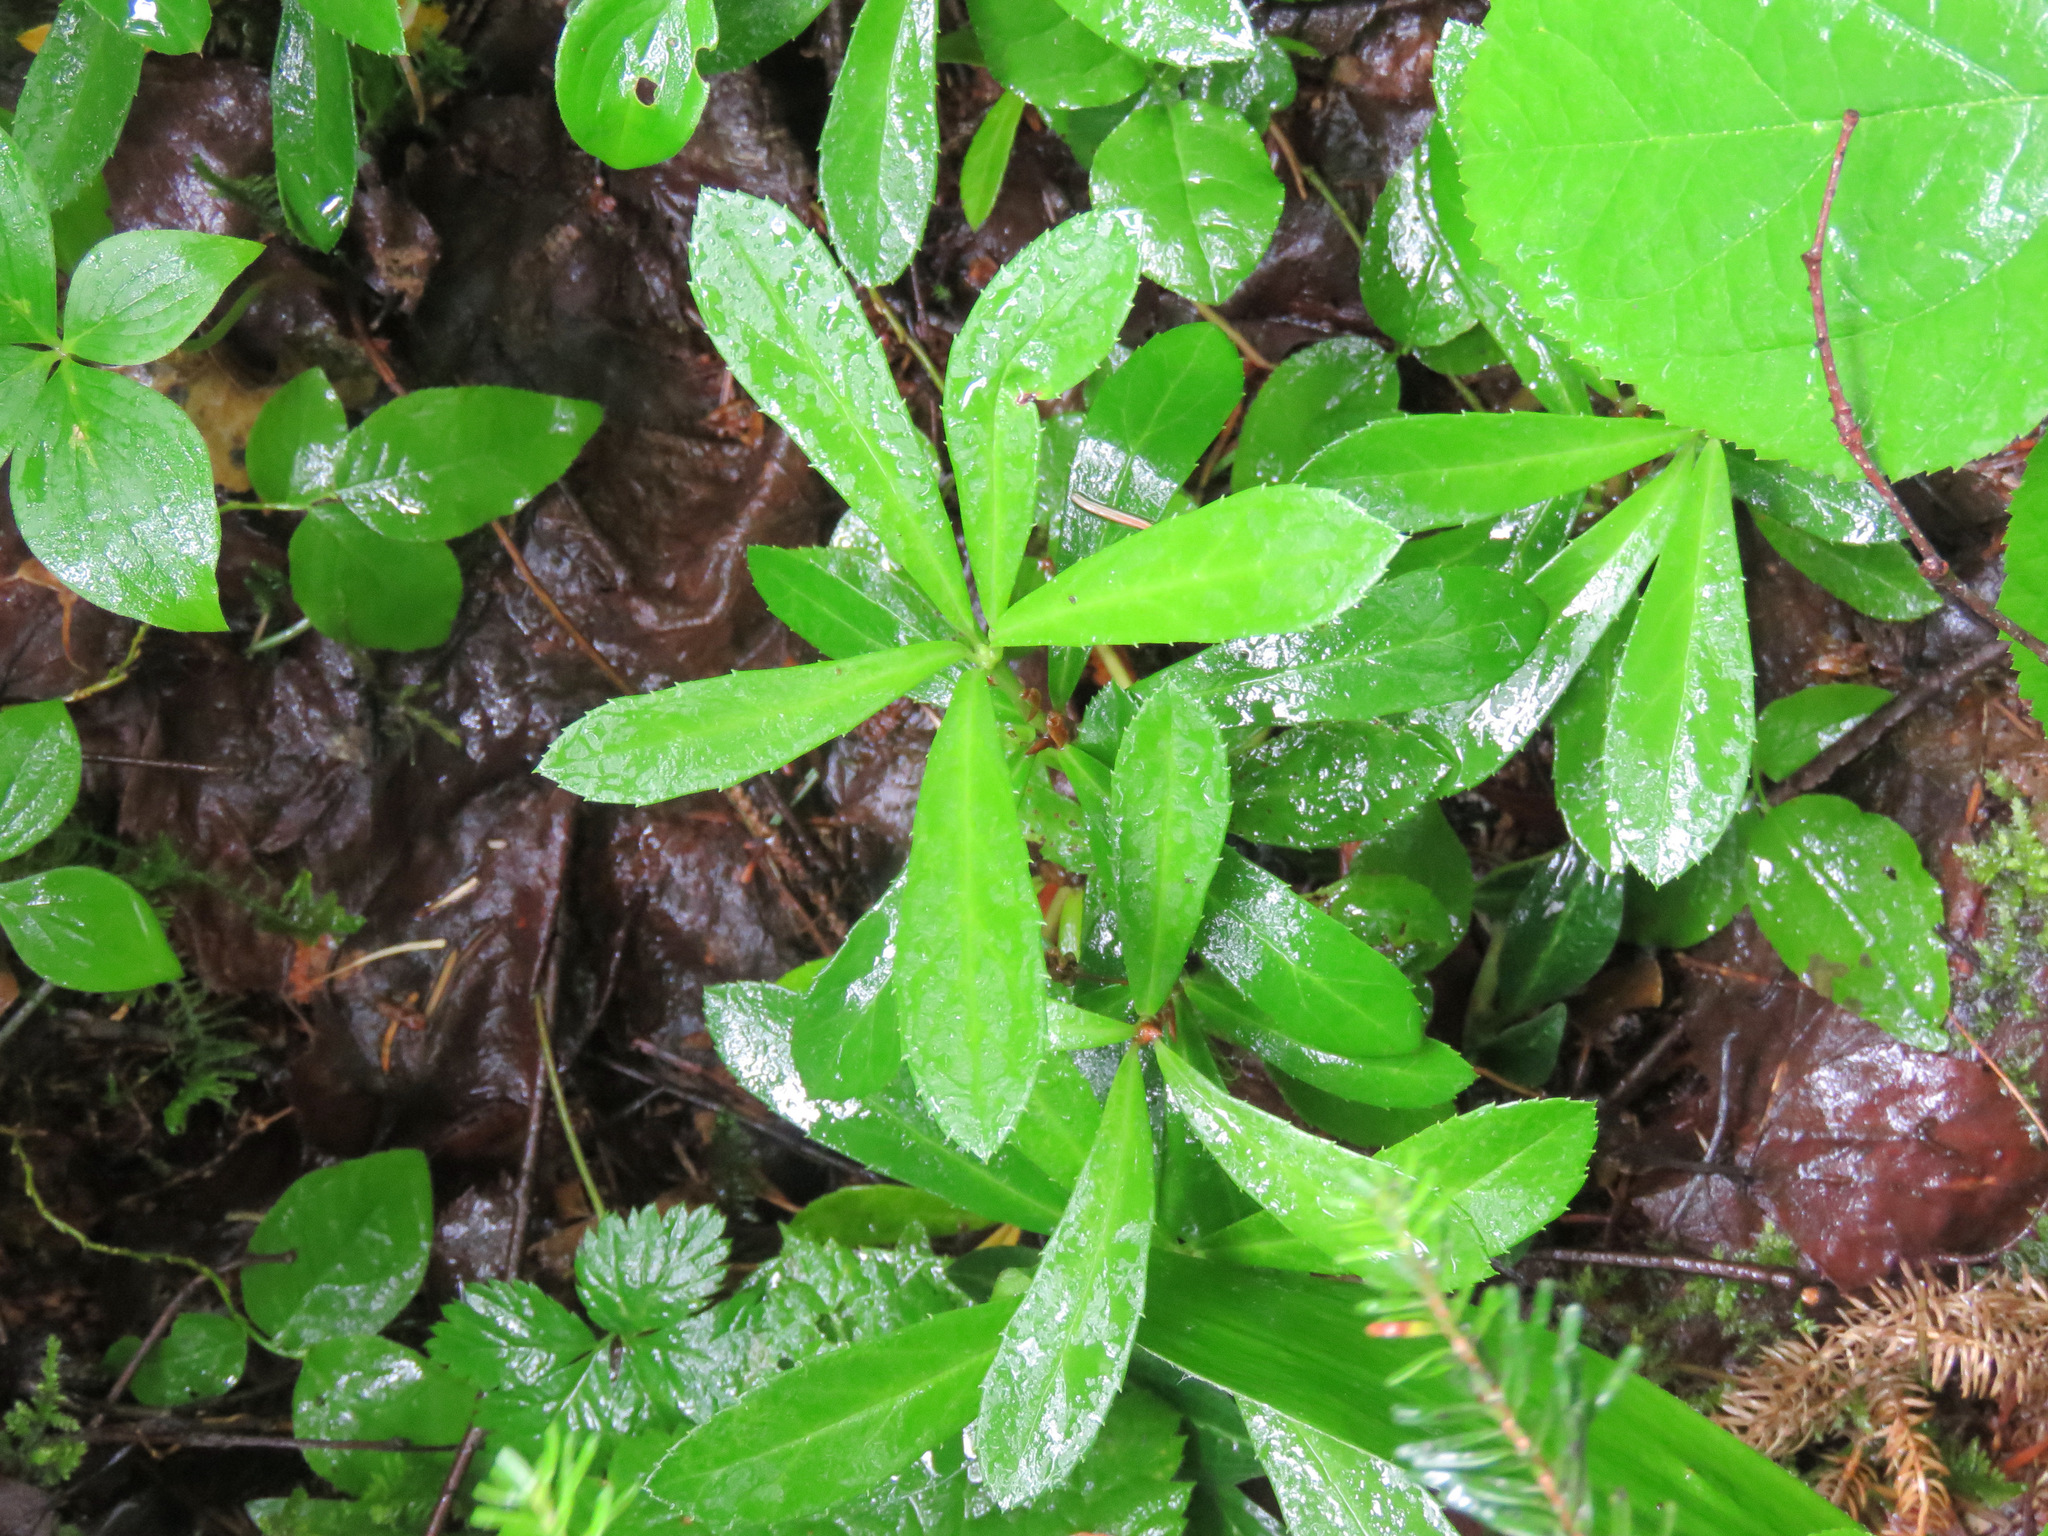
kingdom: Plantae
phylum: Tracheophyta
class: Magnoliopsida
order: Ericales
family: Ericaceae
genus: Chimaphila
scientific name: Chimaphila umbellata
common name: Pipsissewa
